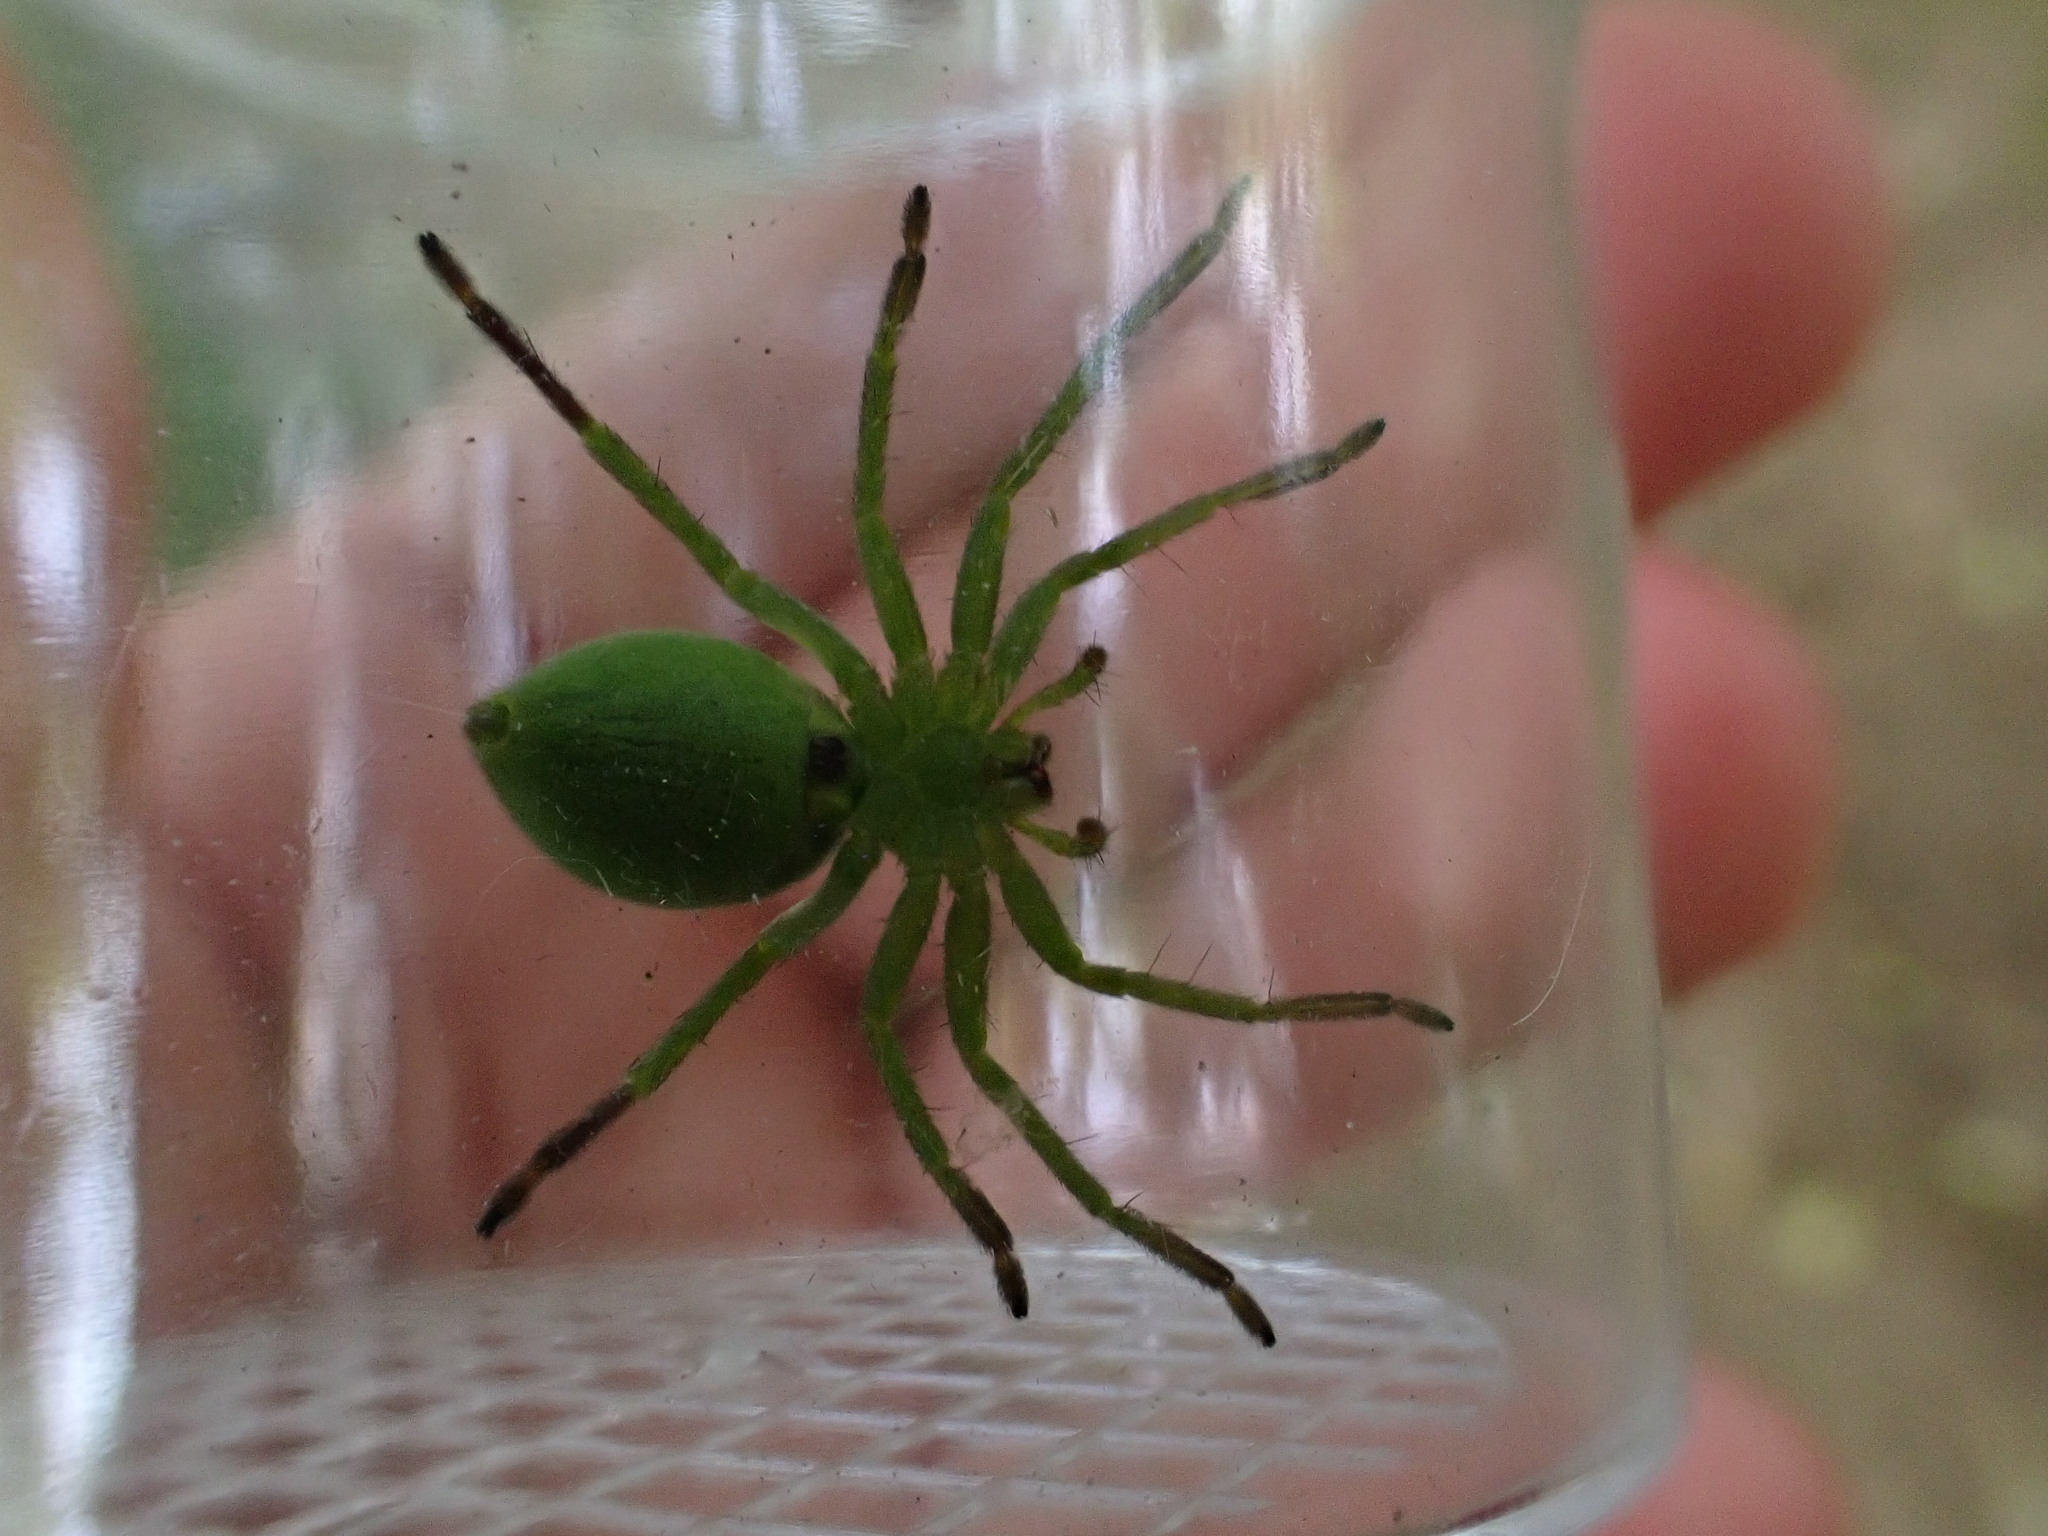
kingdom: Animalia
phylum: Arthropoda
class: Arachnida
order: Araneae
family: Sparassidae
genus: Micrommata
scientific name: Micrommata
